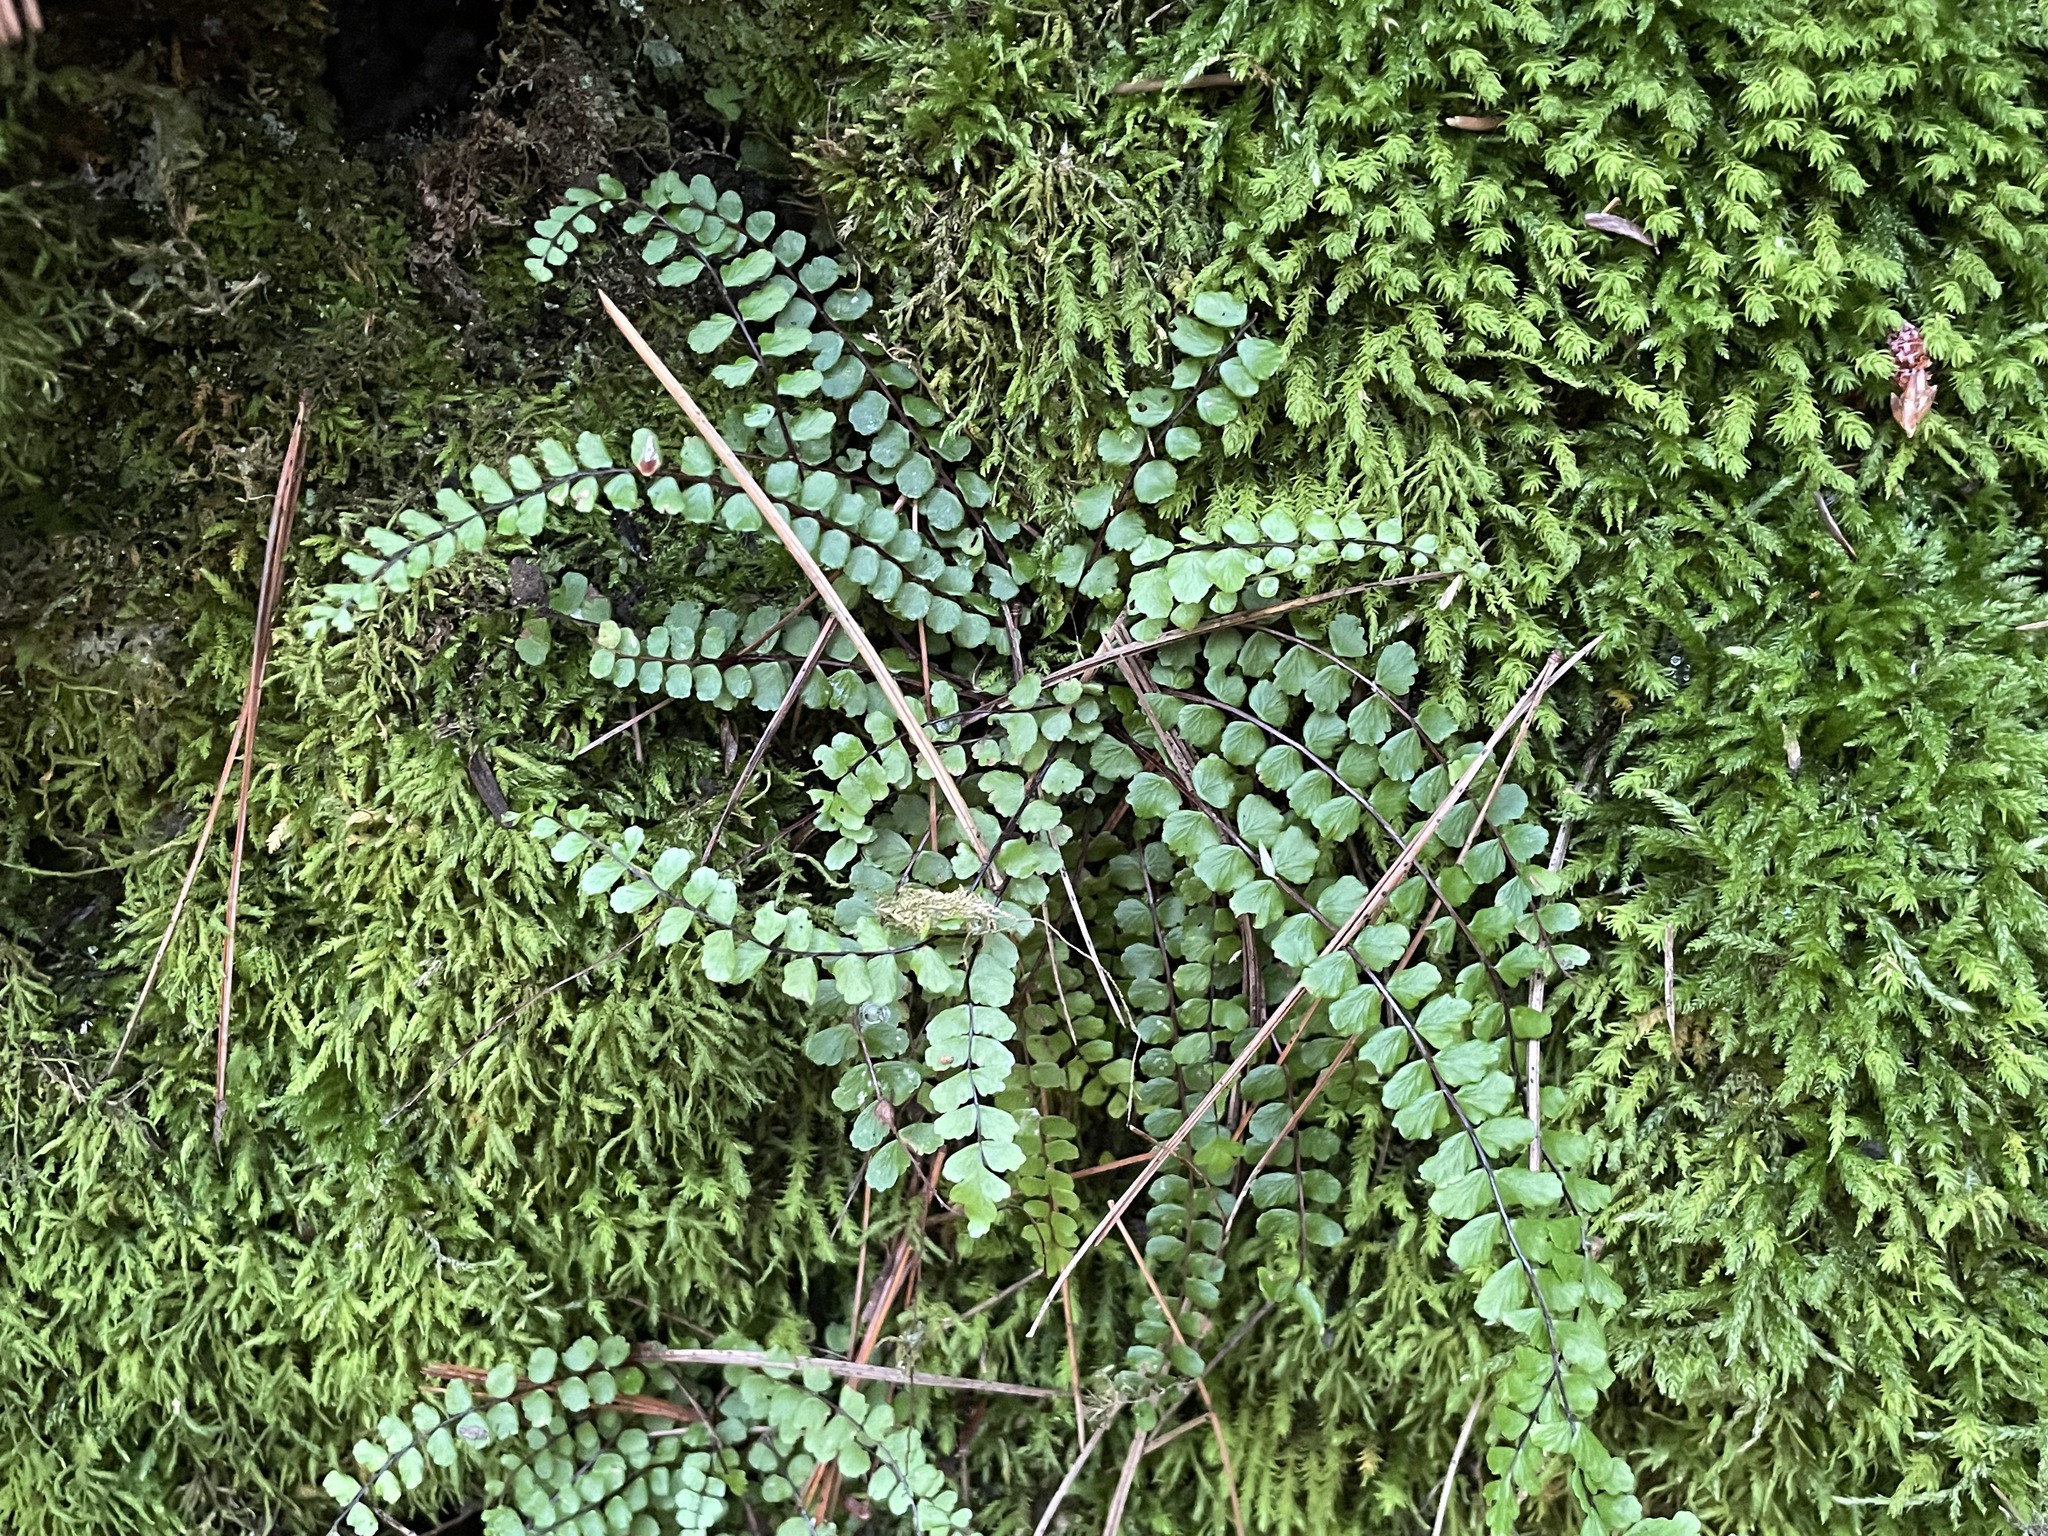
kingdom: Plantae
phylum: Tracheophyta
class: Polypodiopsida
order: Polypodiales
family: Aspleniaceae
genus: Asplenium
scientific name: Asplenium trichomanes
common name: Maidenhair spleenwort
